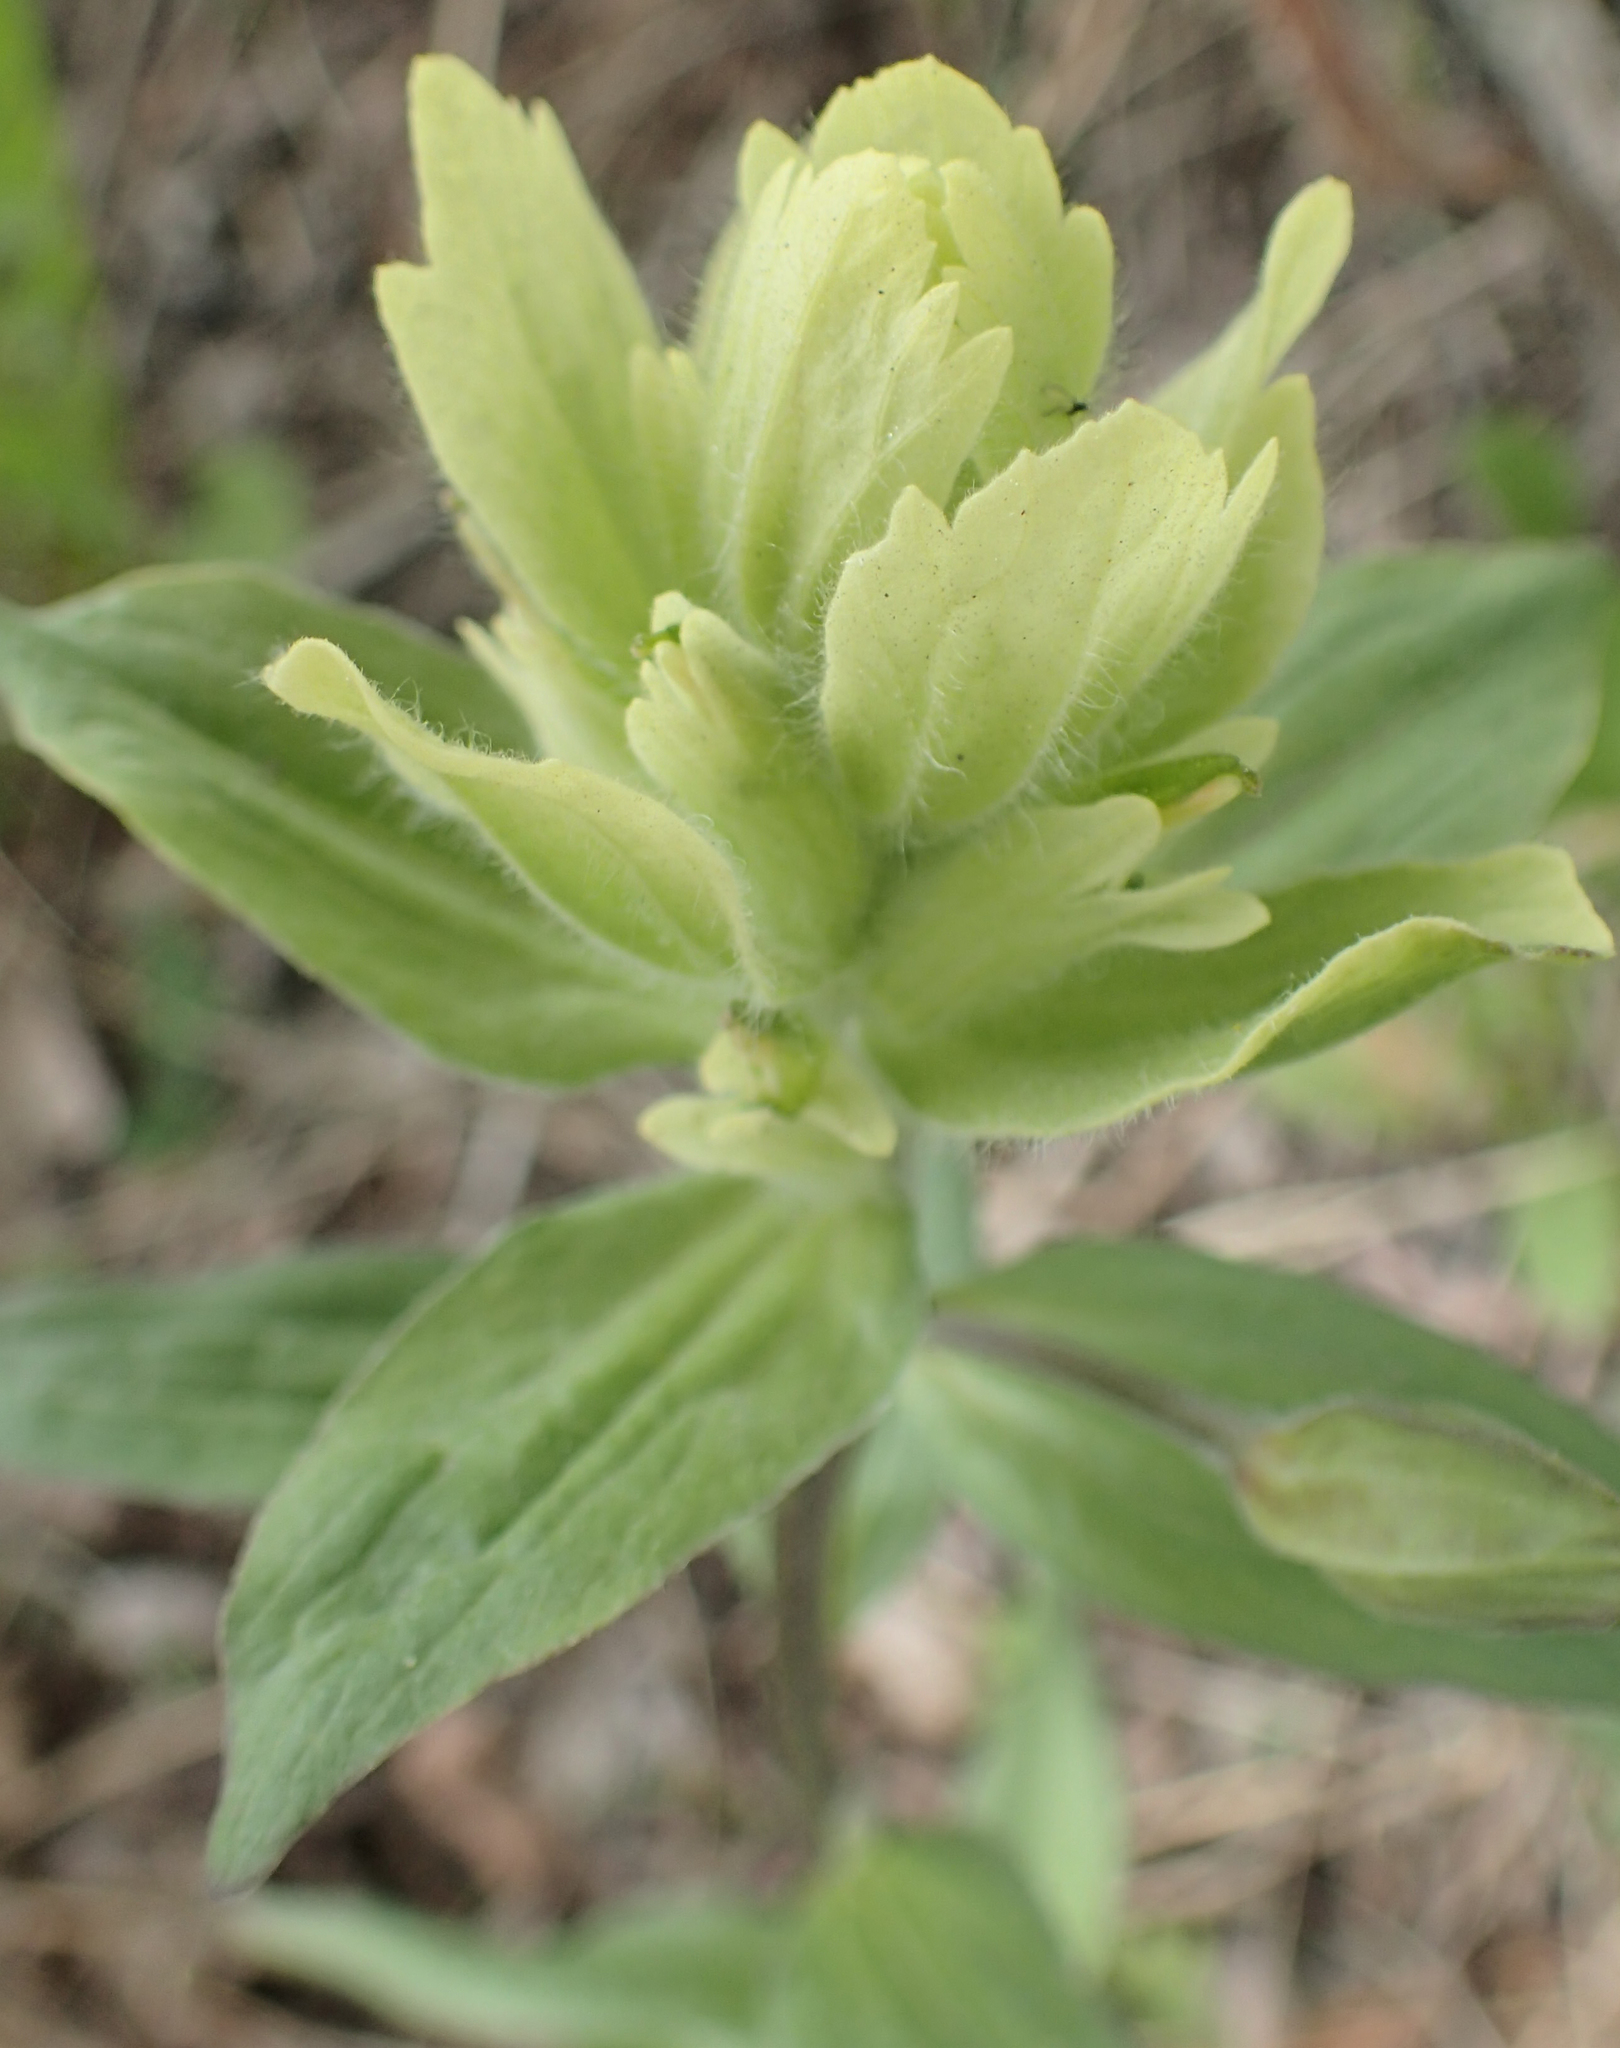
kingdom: Plantae
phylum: Tracheophyta
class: Magnoliopsida
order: Lamiales
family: Orobanchaceae
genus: Castilleja
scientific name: Castilleja unalaschcensis
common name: Unalaska paintbrush
